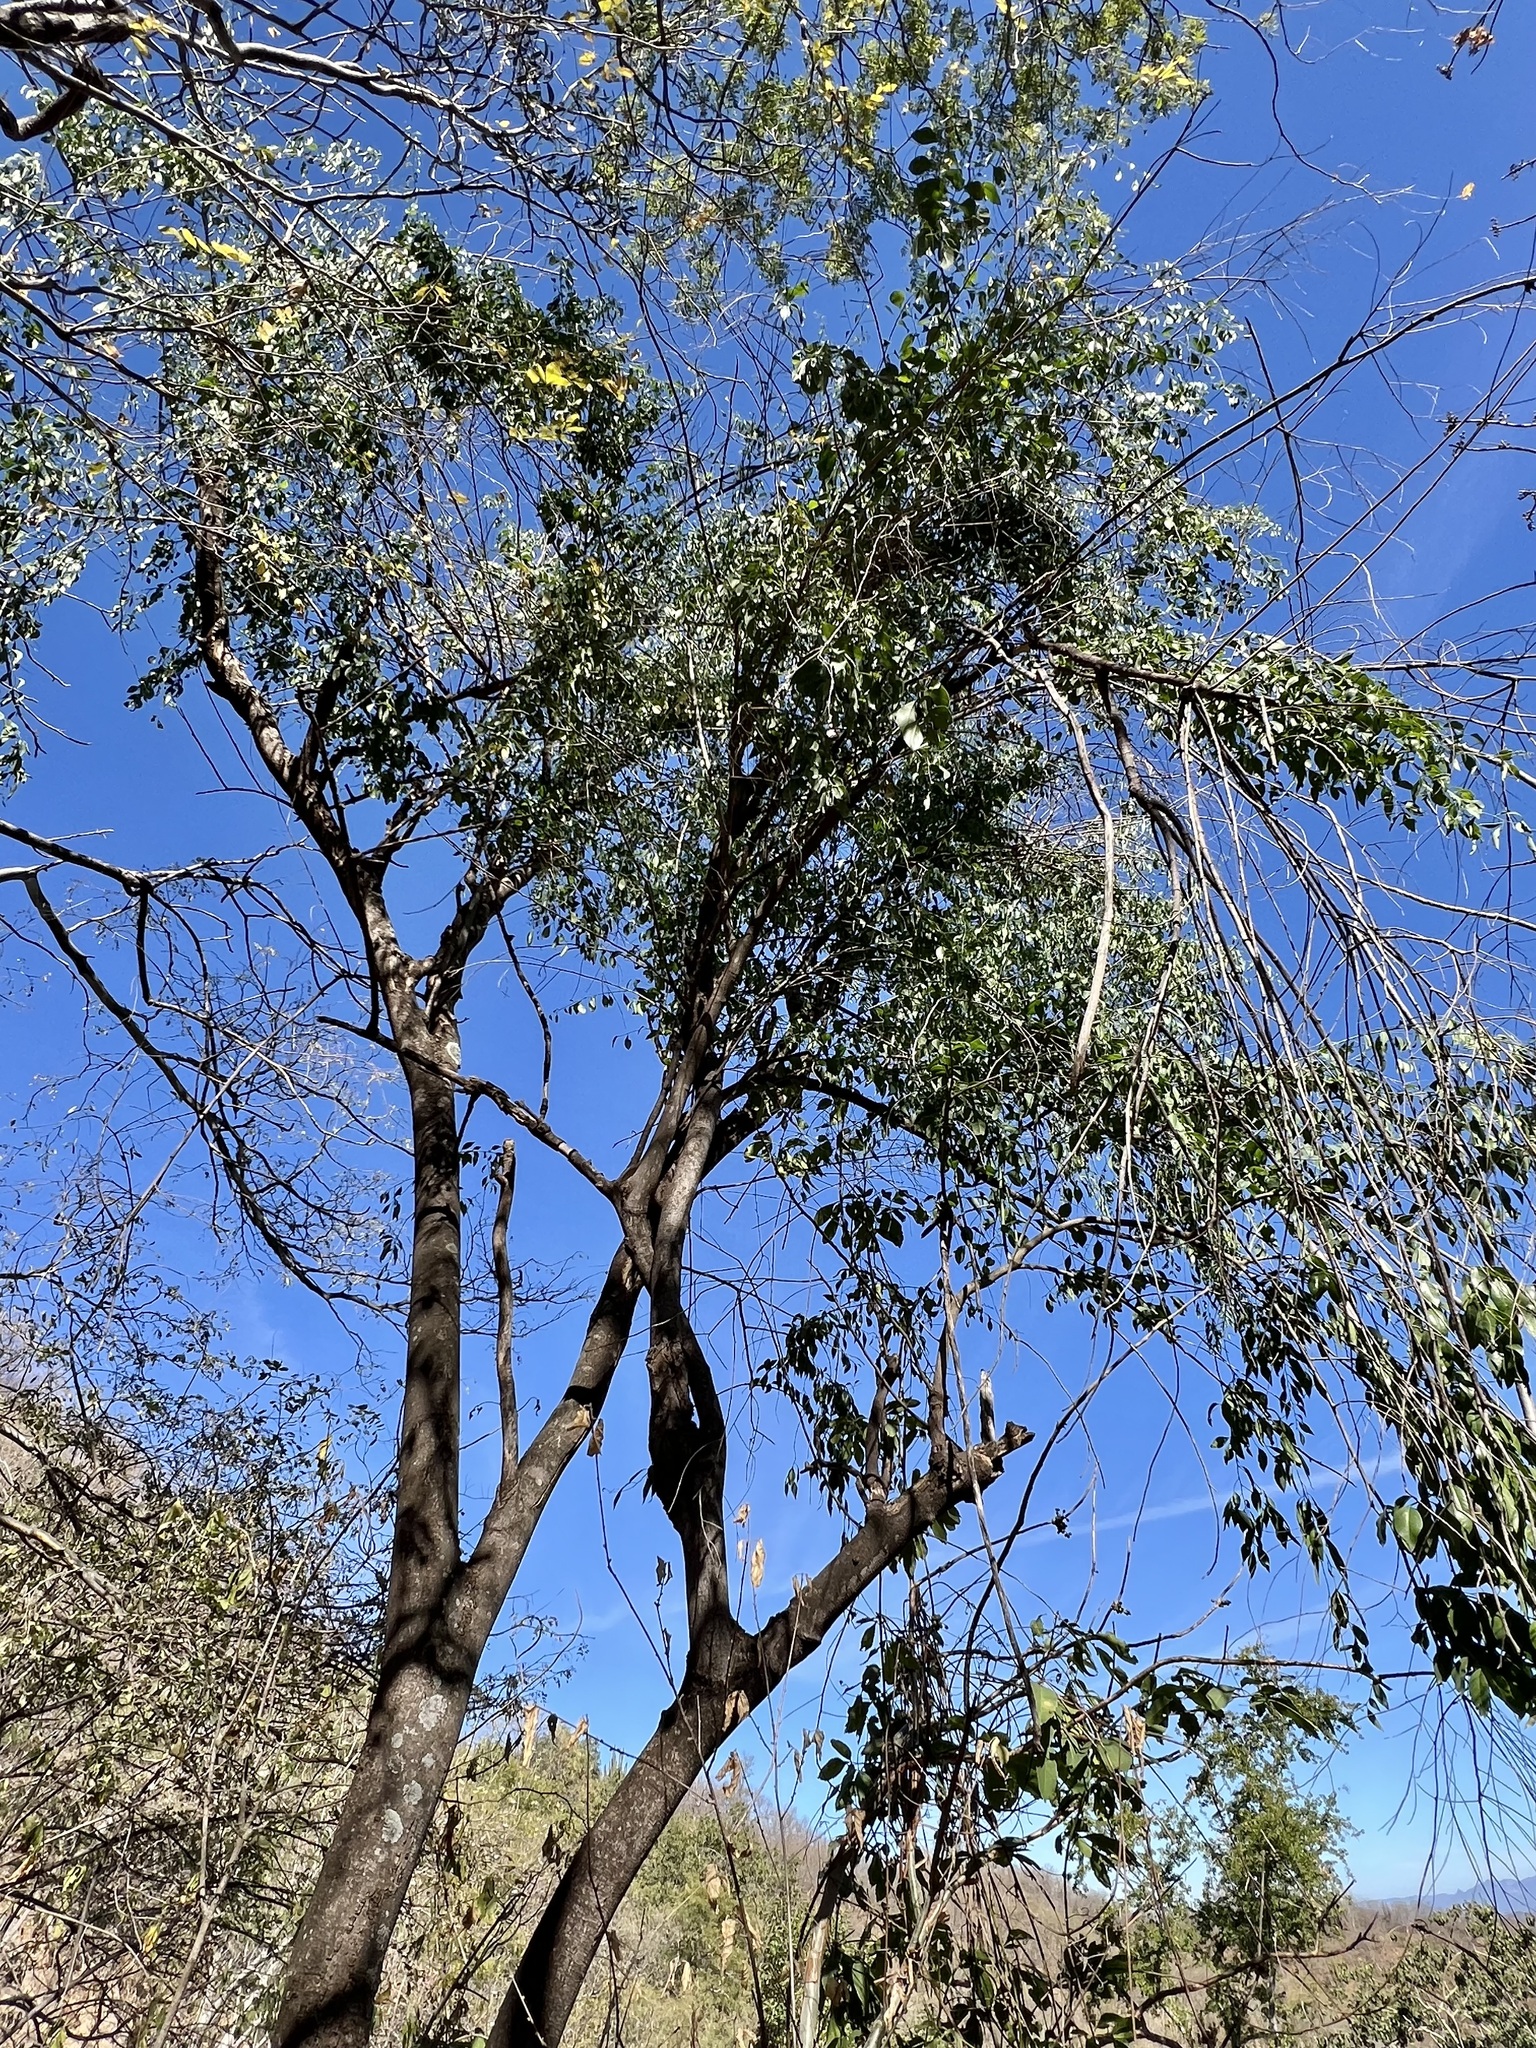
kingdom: Plantae
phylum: Tracheophyta
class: Magnoliopsida
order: Santalales
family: Opiliaceae
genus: Agonandra
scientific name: Agonandra racemosa
